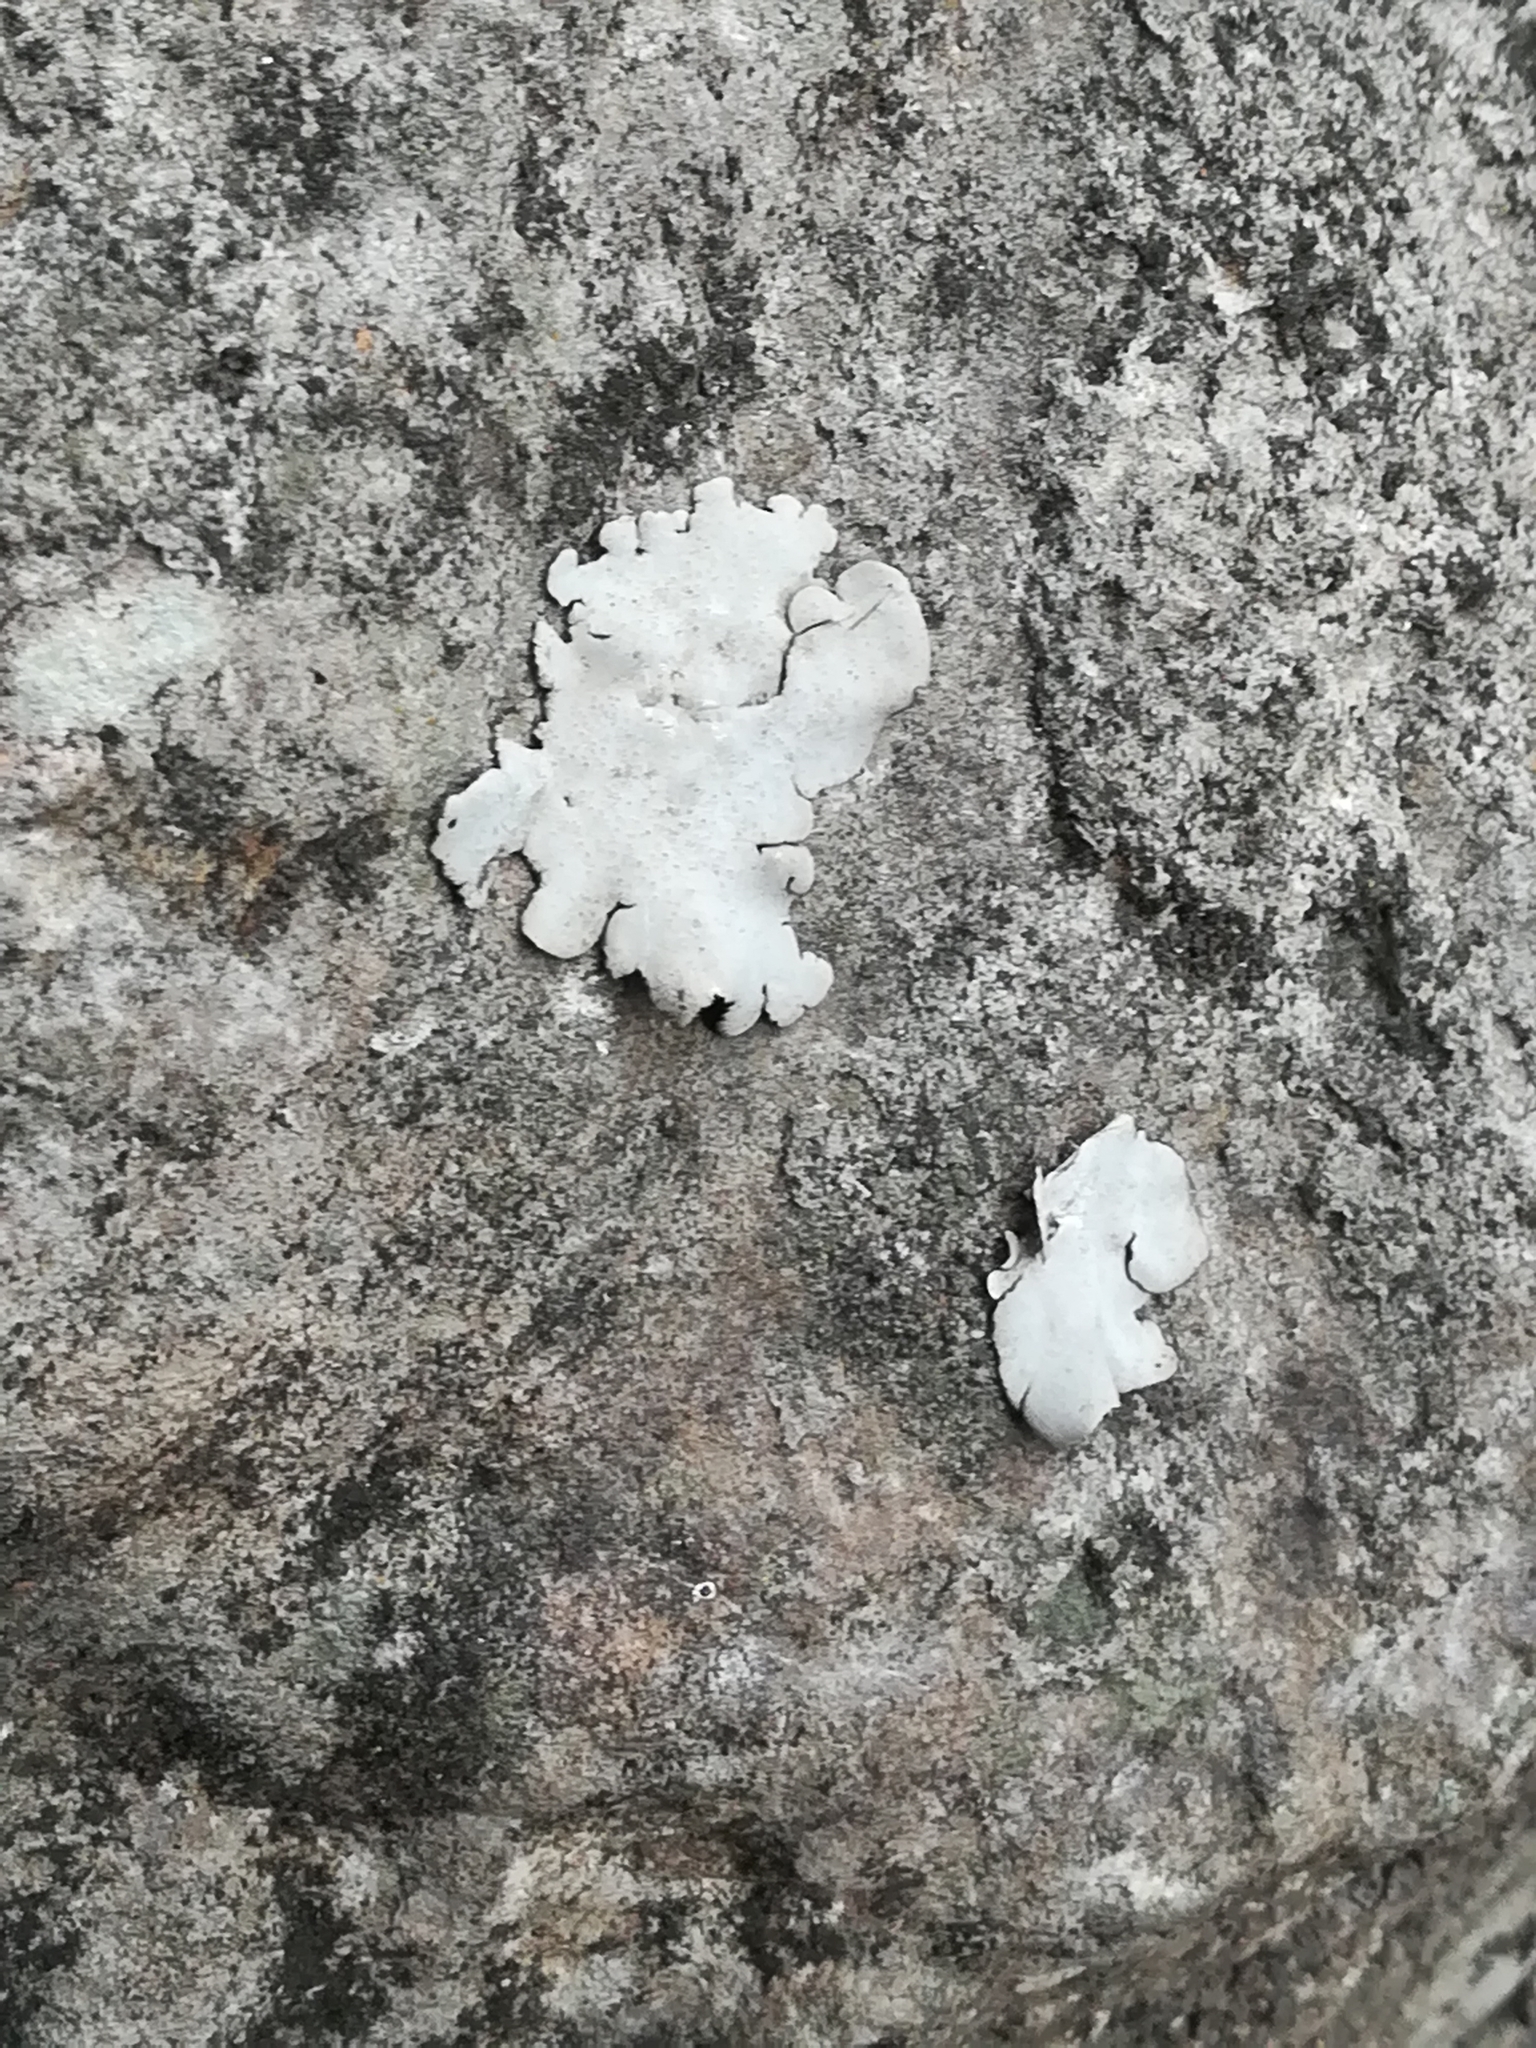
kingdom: Fungi
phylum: Ascomycota
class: Eurotiomycetes
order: Verrucariales
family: Verrucariaceae
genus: Dermatocarpon
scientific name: Dermatocarpon miniatum
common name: Leather lichen
